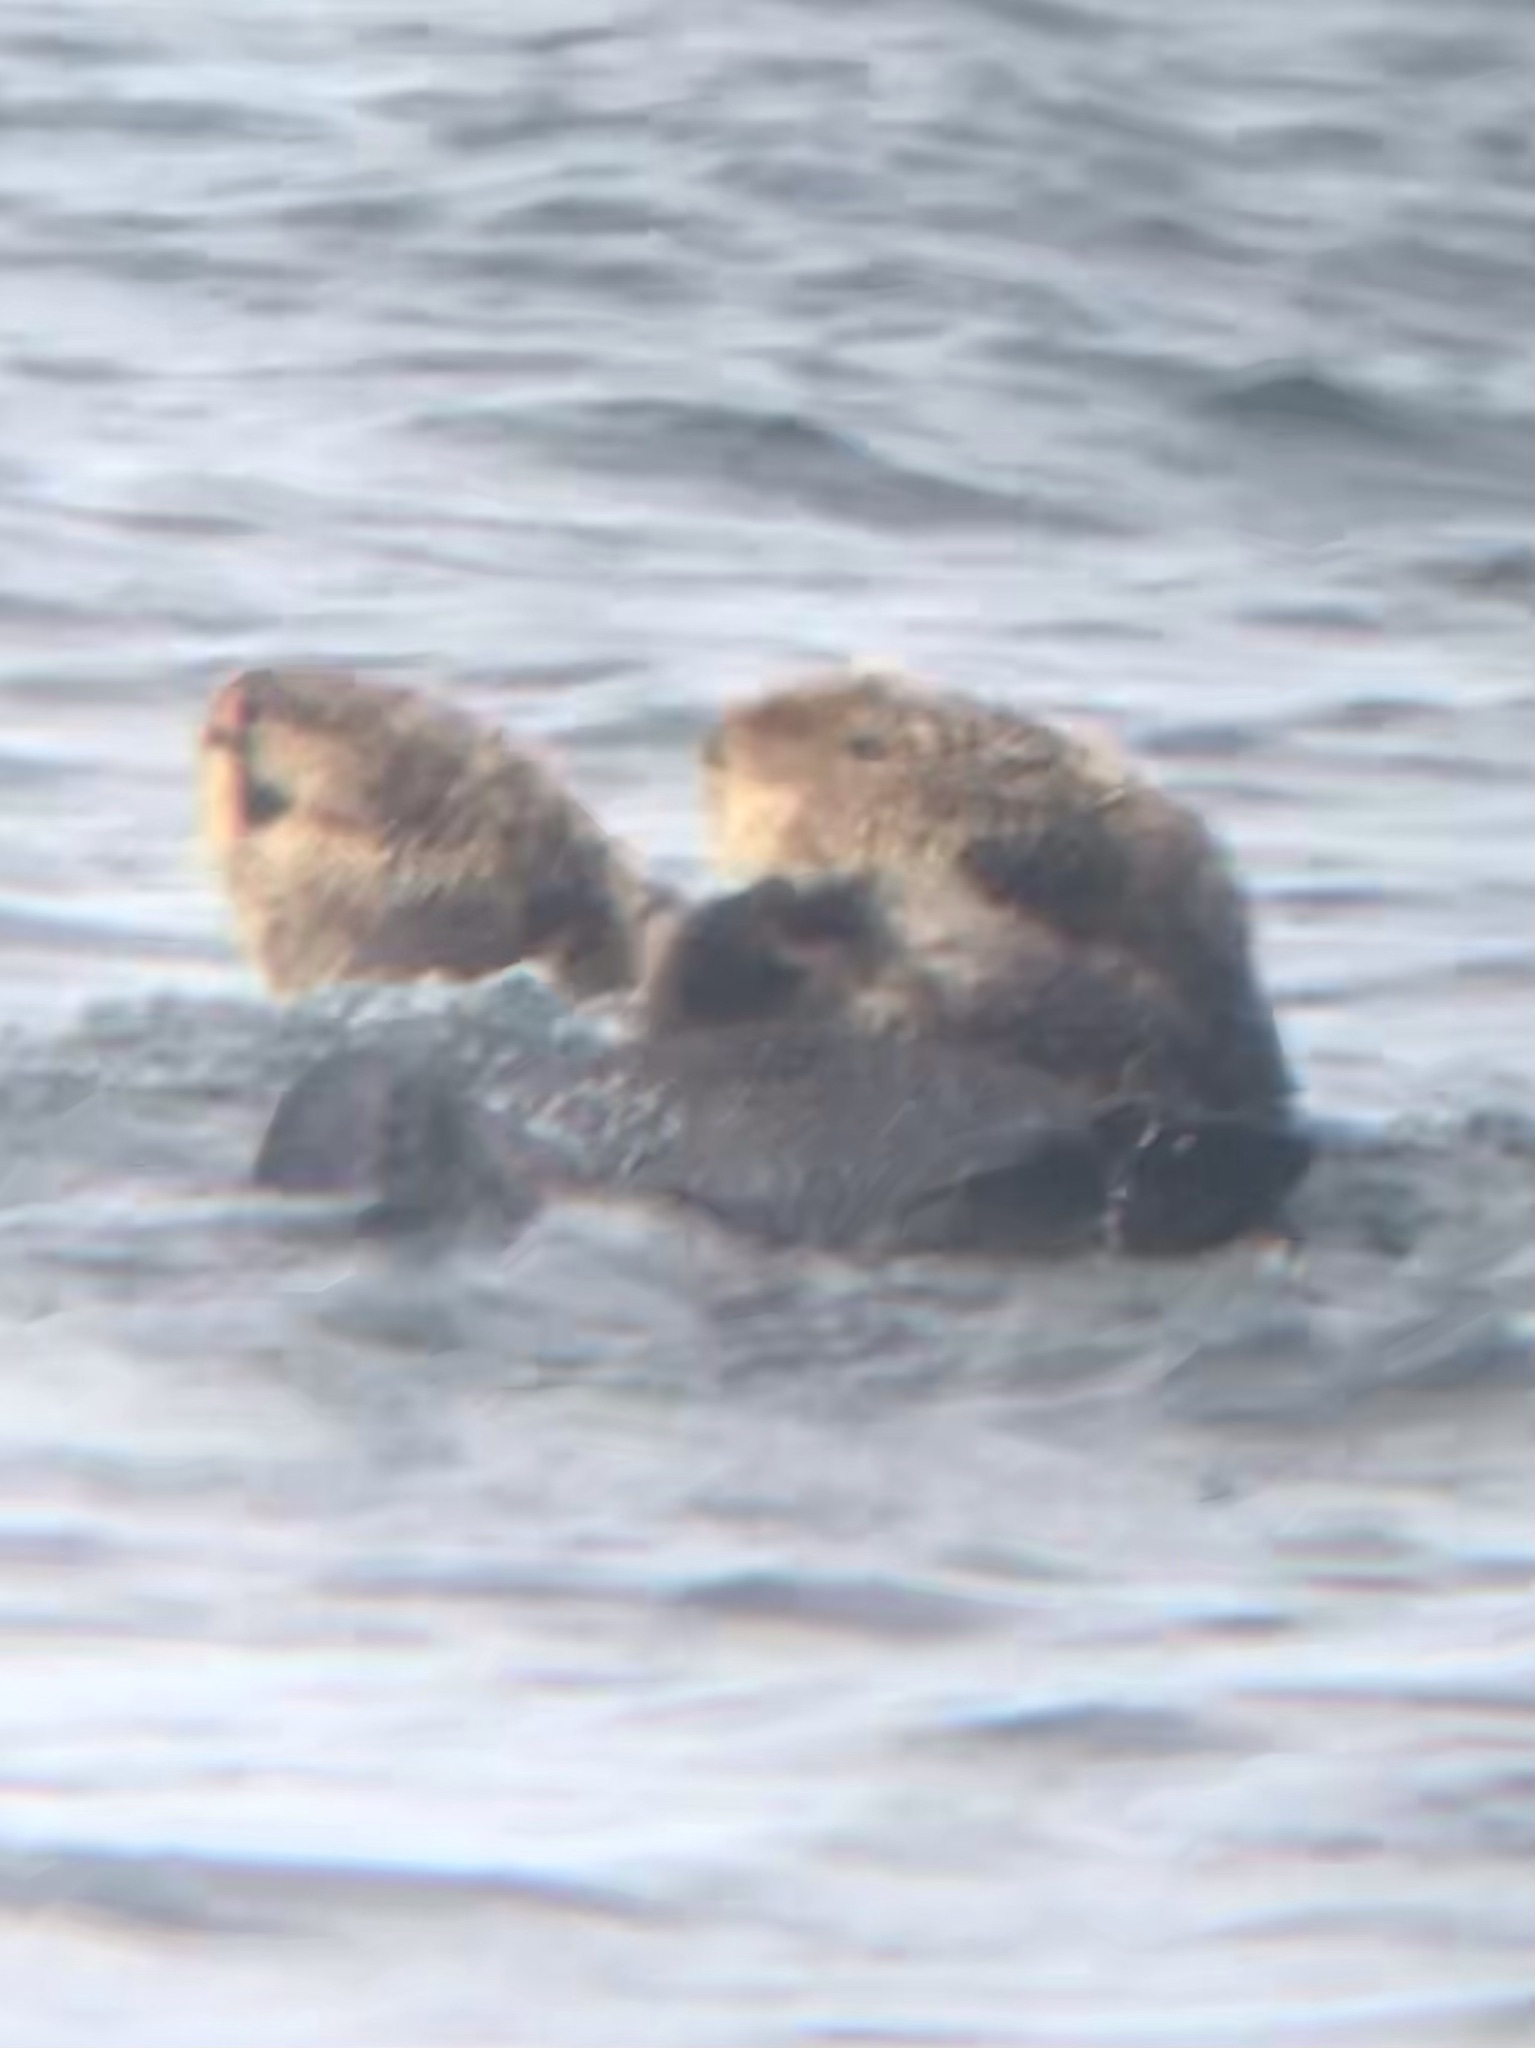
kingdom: Animalia
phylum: Chordata
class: Mammalia
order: Carnivora
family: Mustelidae
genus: Enhydra
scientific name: Enhydra lutris
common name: Sea otter
